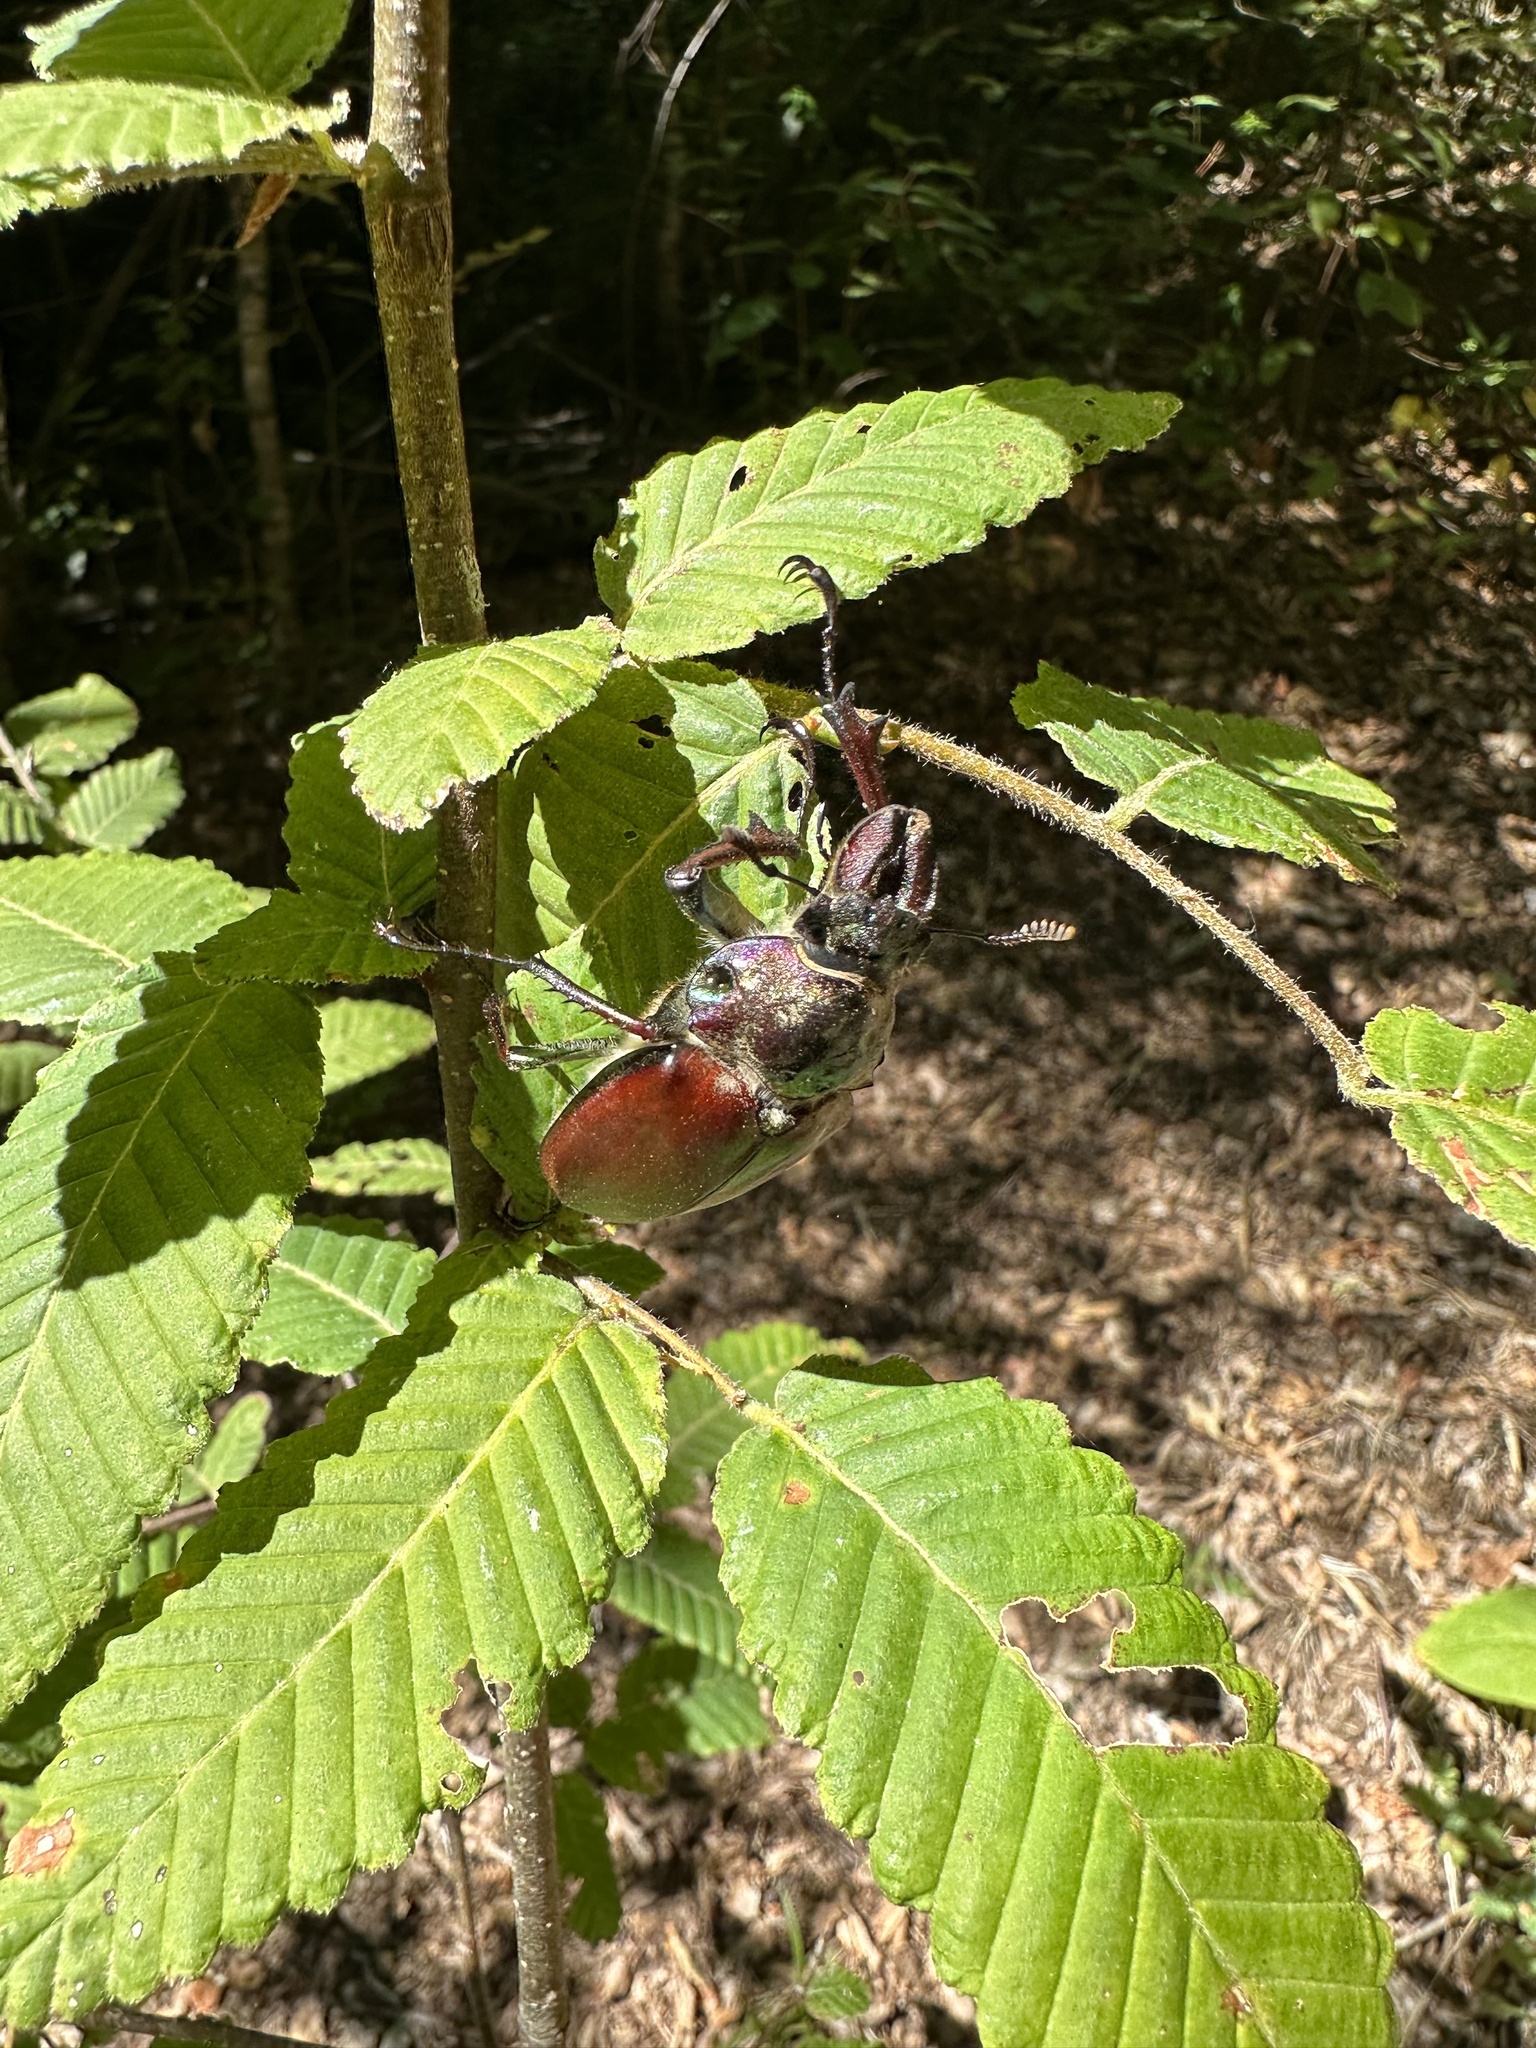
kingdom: Animalia
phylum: Arthropoda
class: Insecta
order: Coleoptera
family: Lucanidae
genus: Chiasognathus
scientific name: Chiasognathus grantii
